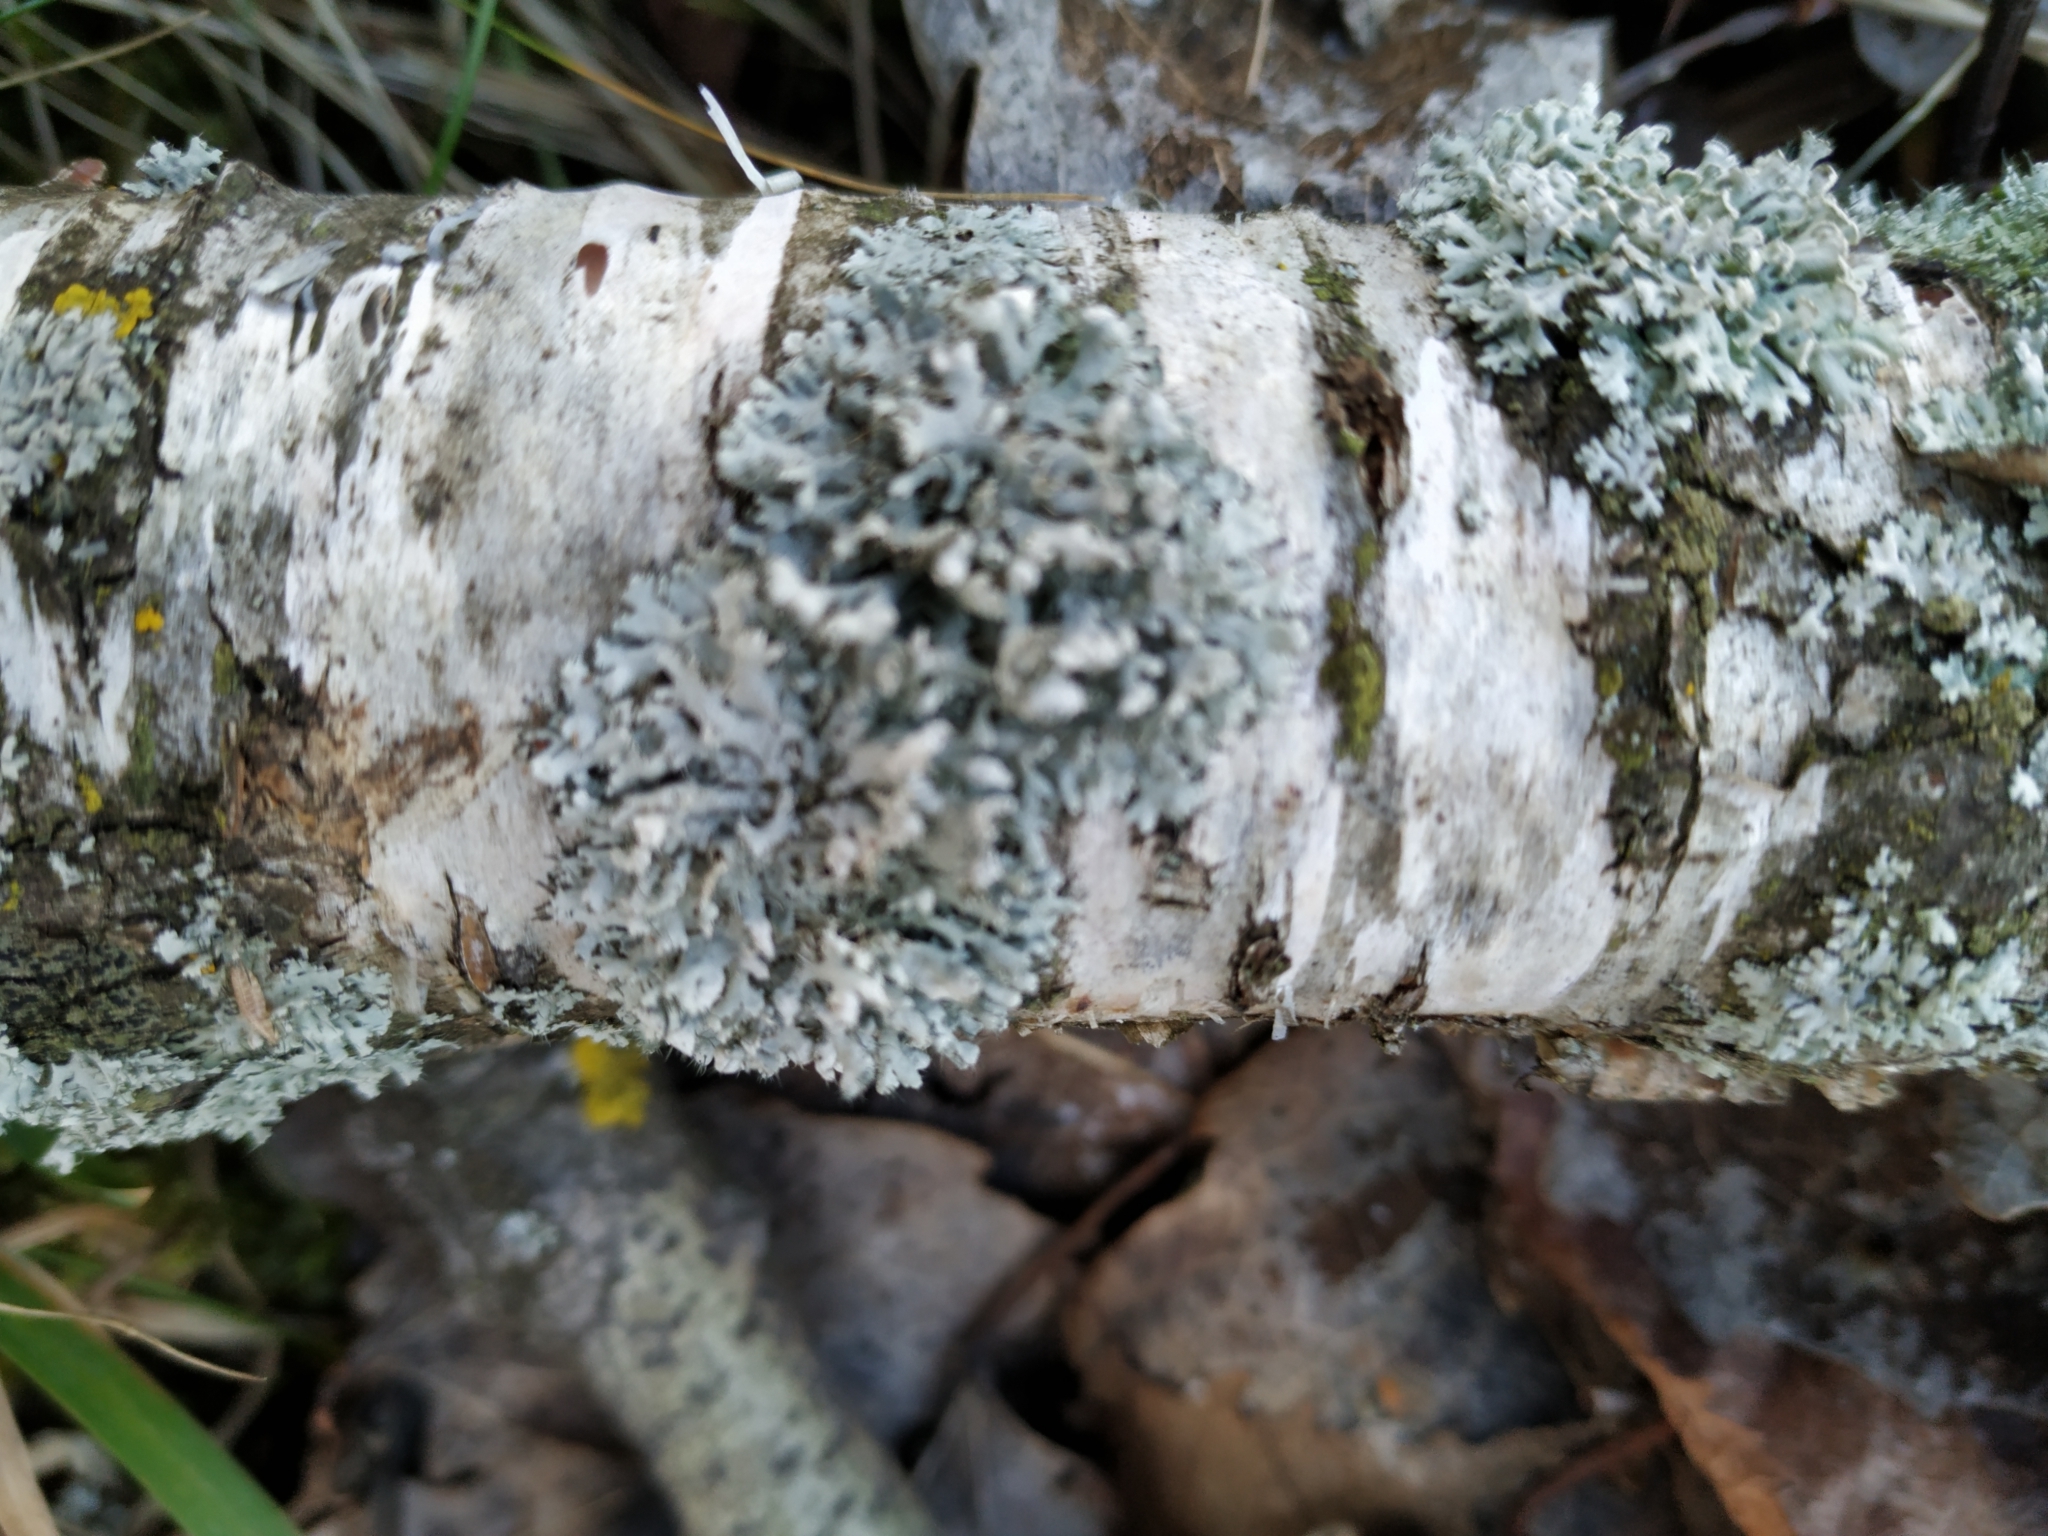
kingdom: Fungi
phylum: Ascomycota
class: Lecanoromycetes
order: Caliciales
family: Physciaceae
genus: Physcia
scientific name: Physcia tenella
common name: Fringed rosette lichen
